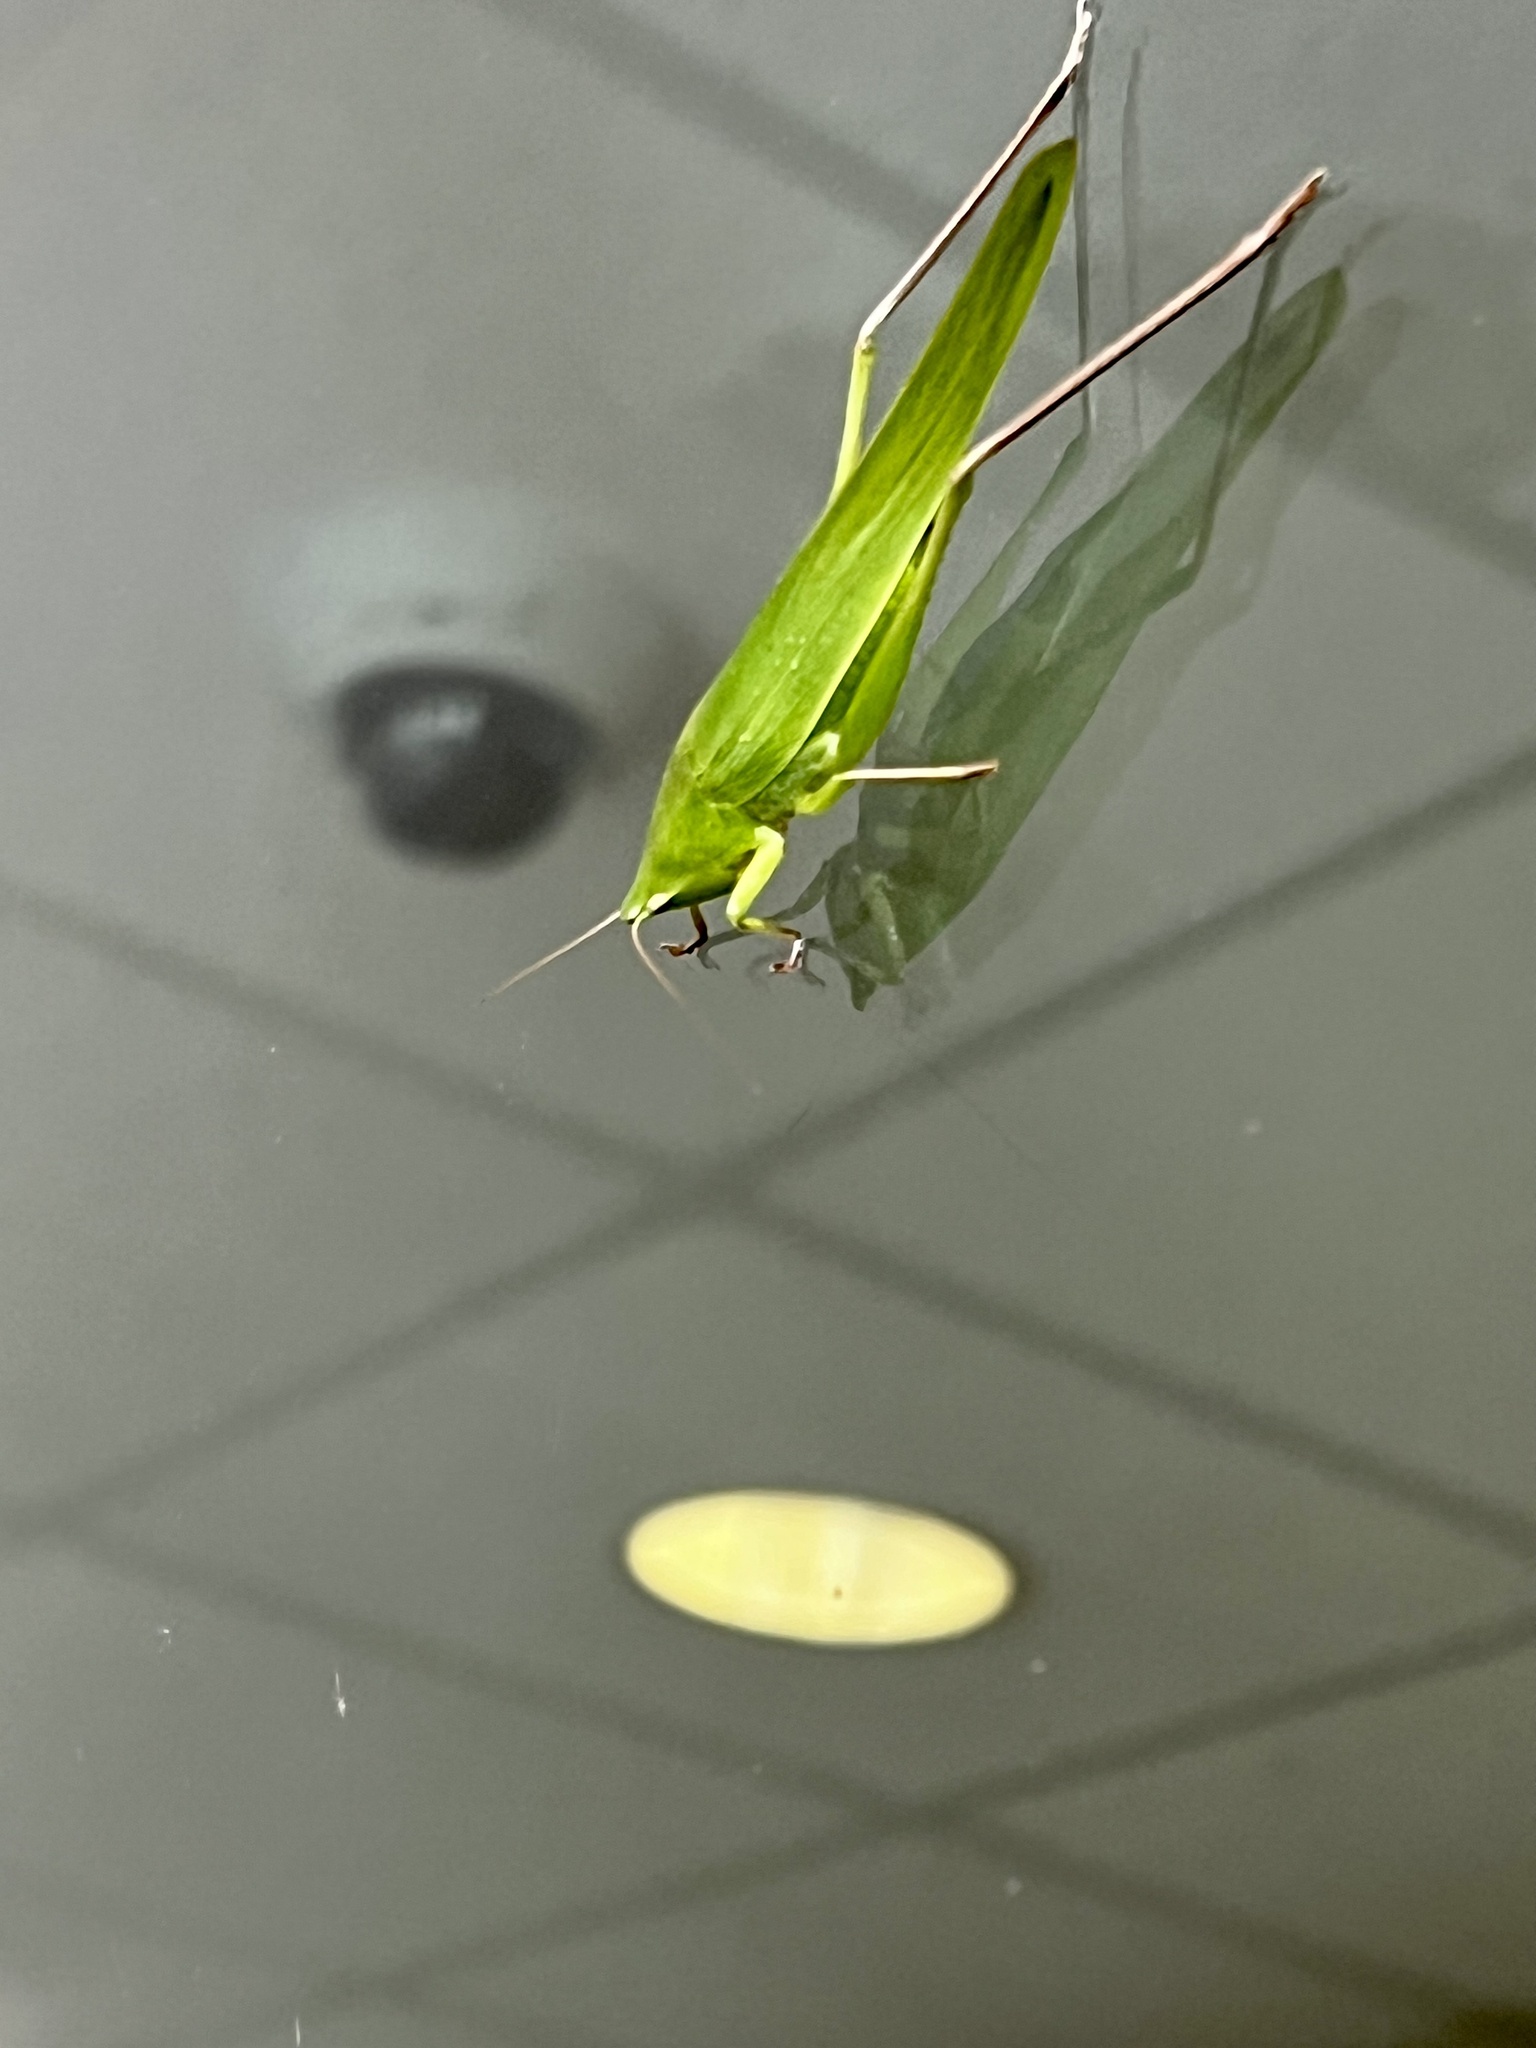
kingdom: Animalia
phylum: Arthropoda
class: Insecta
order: Orthoptera
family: Tettigoniidae
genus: Neoconocephalus
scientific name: Neoconocephalus triops
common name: Broad-tipped conehead
